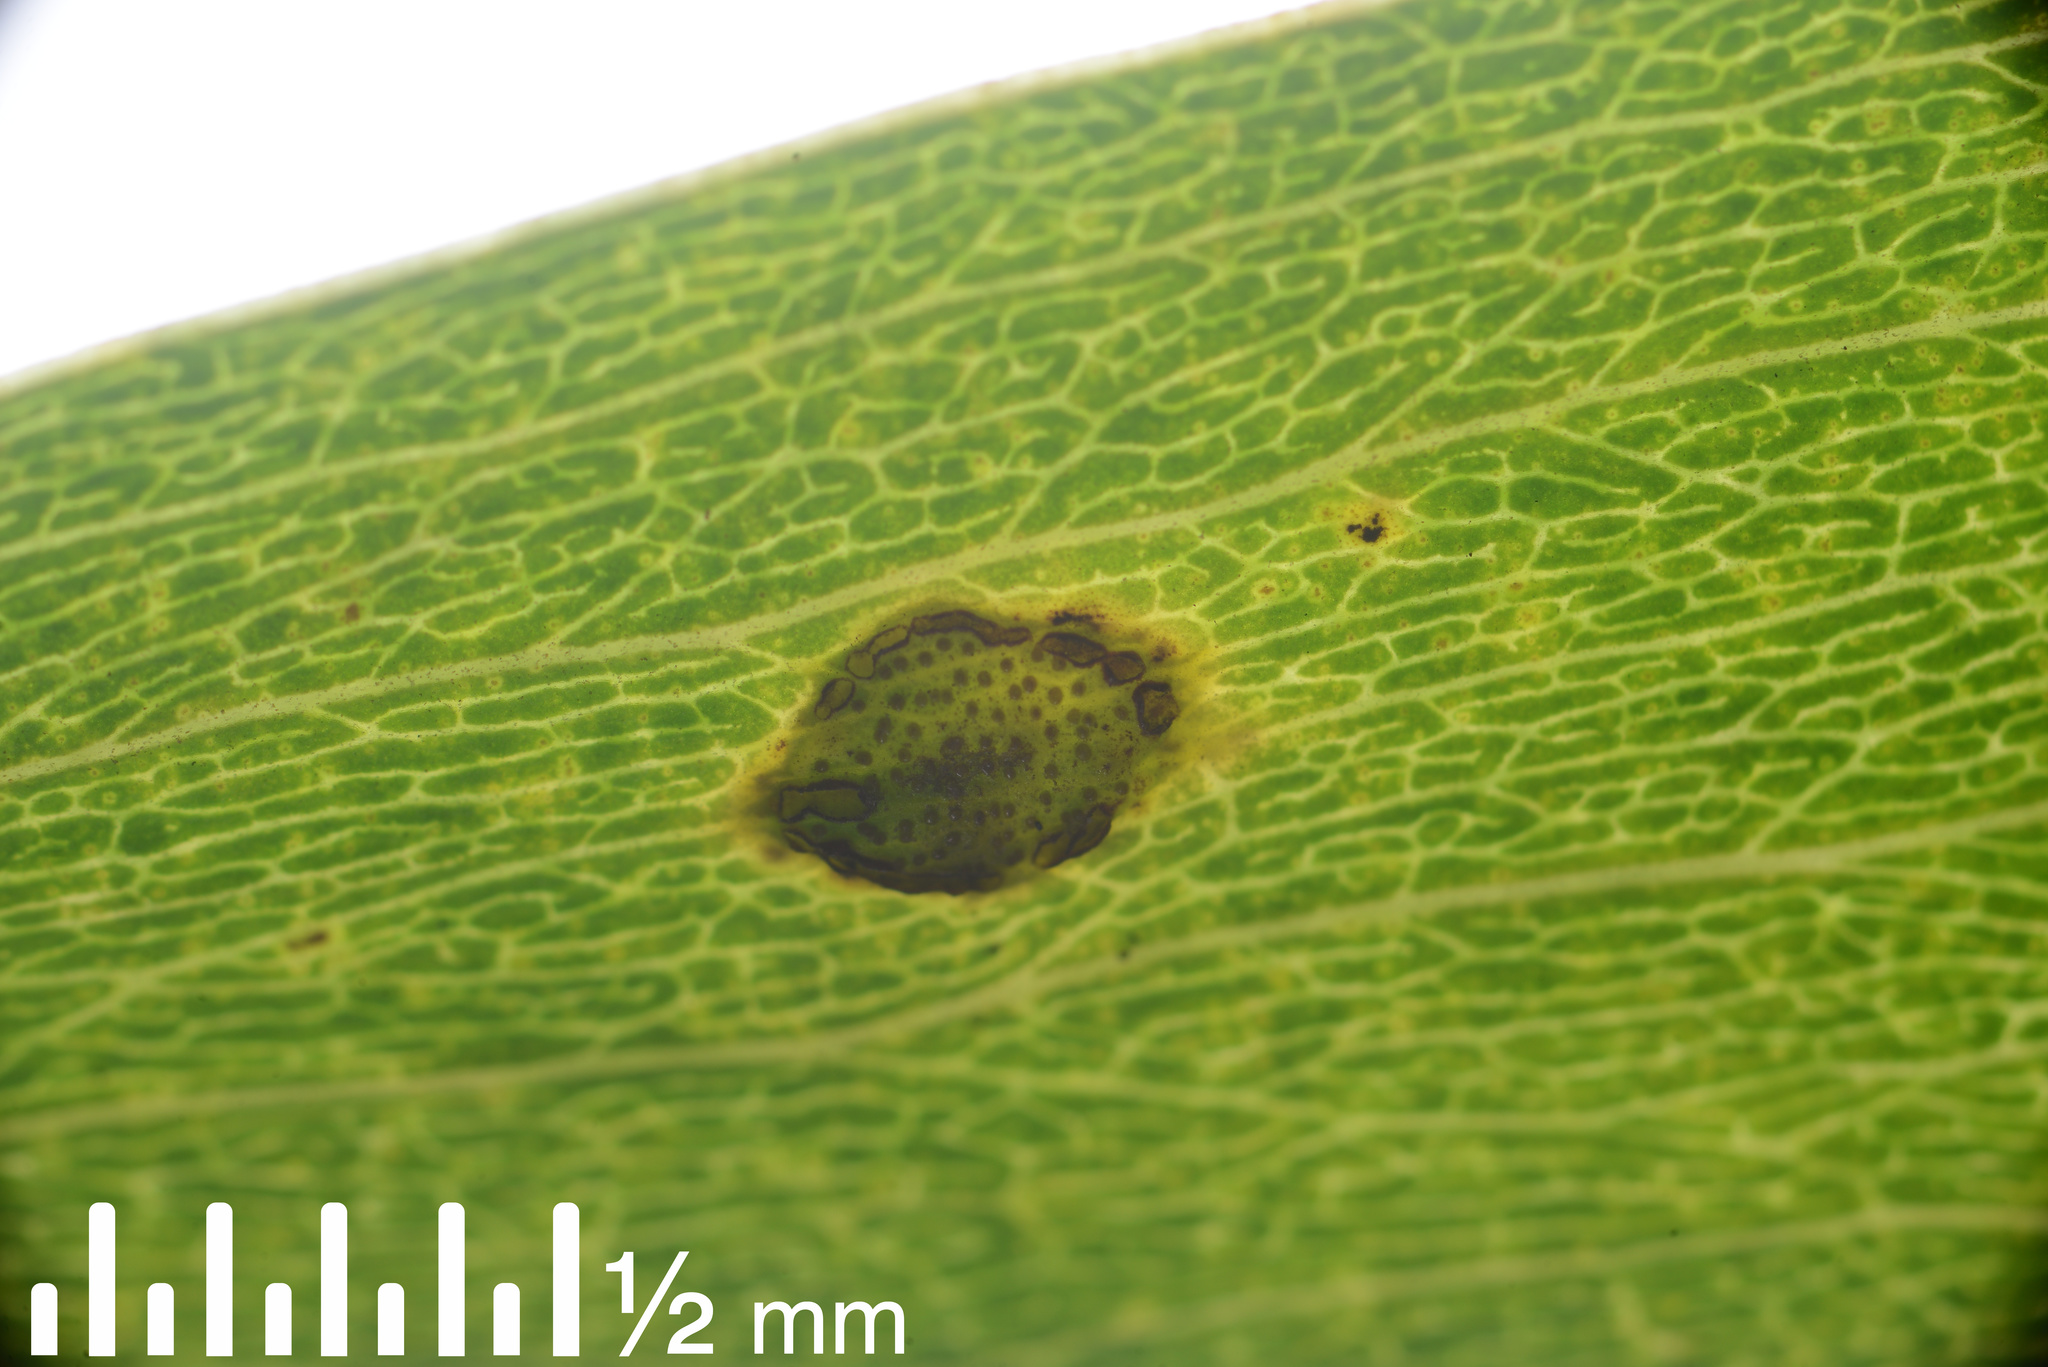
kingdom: Fungi
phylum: Basidiomycota
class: Pucciniomycetes
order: Pucciniales
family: Uromycladiaceae
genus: Uromycladium
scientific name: Uromycladium robinsonii
